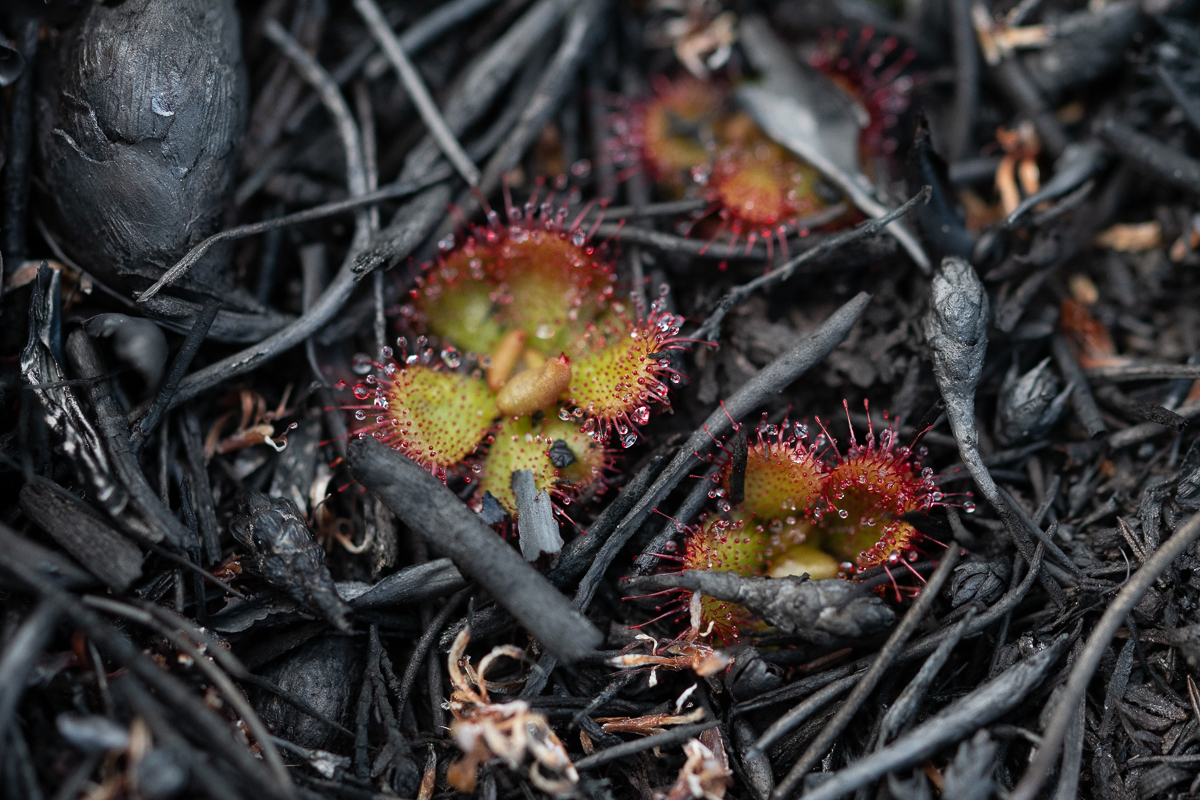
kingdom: Plantae
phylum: Tracheophyta
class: Magnoliopsida
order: Caryophyllales
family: Droseraceae
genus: Drosera
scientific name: Drosera cuneifolia
